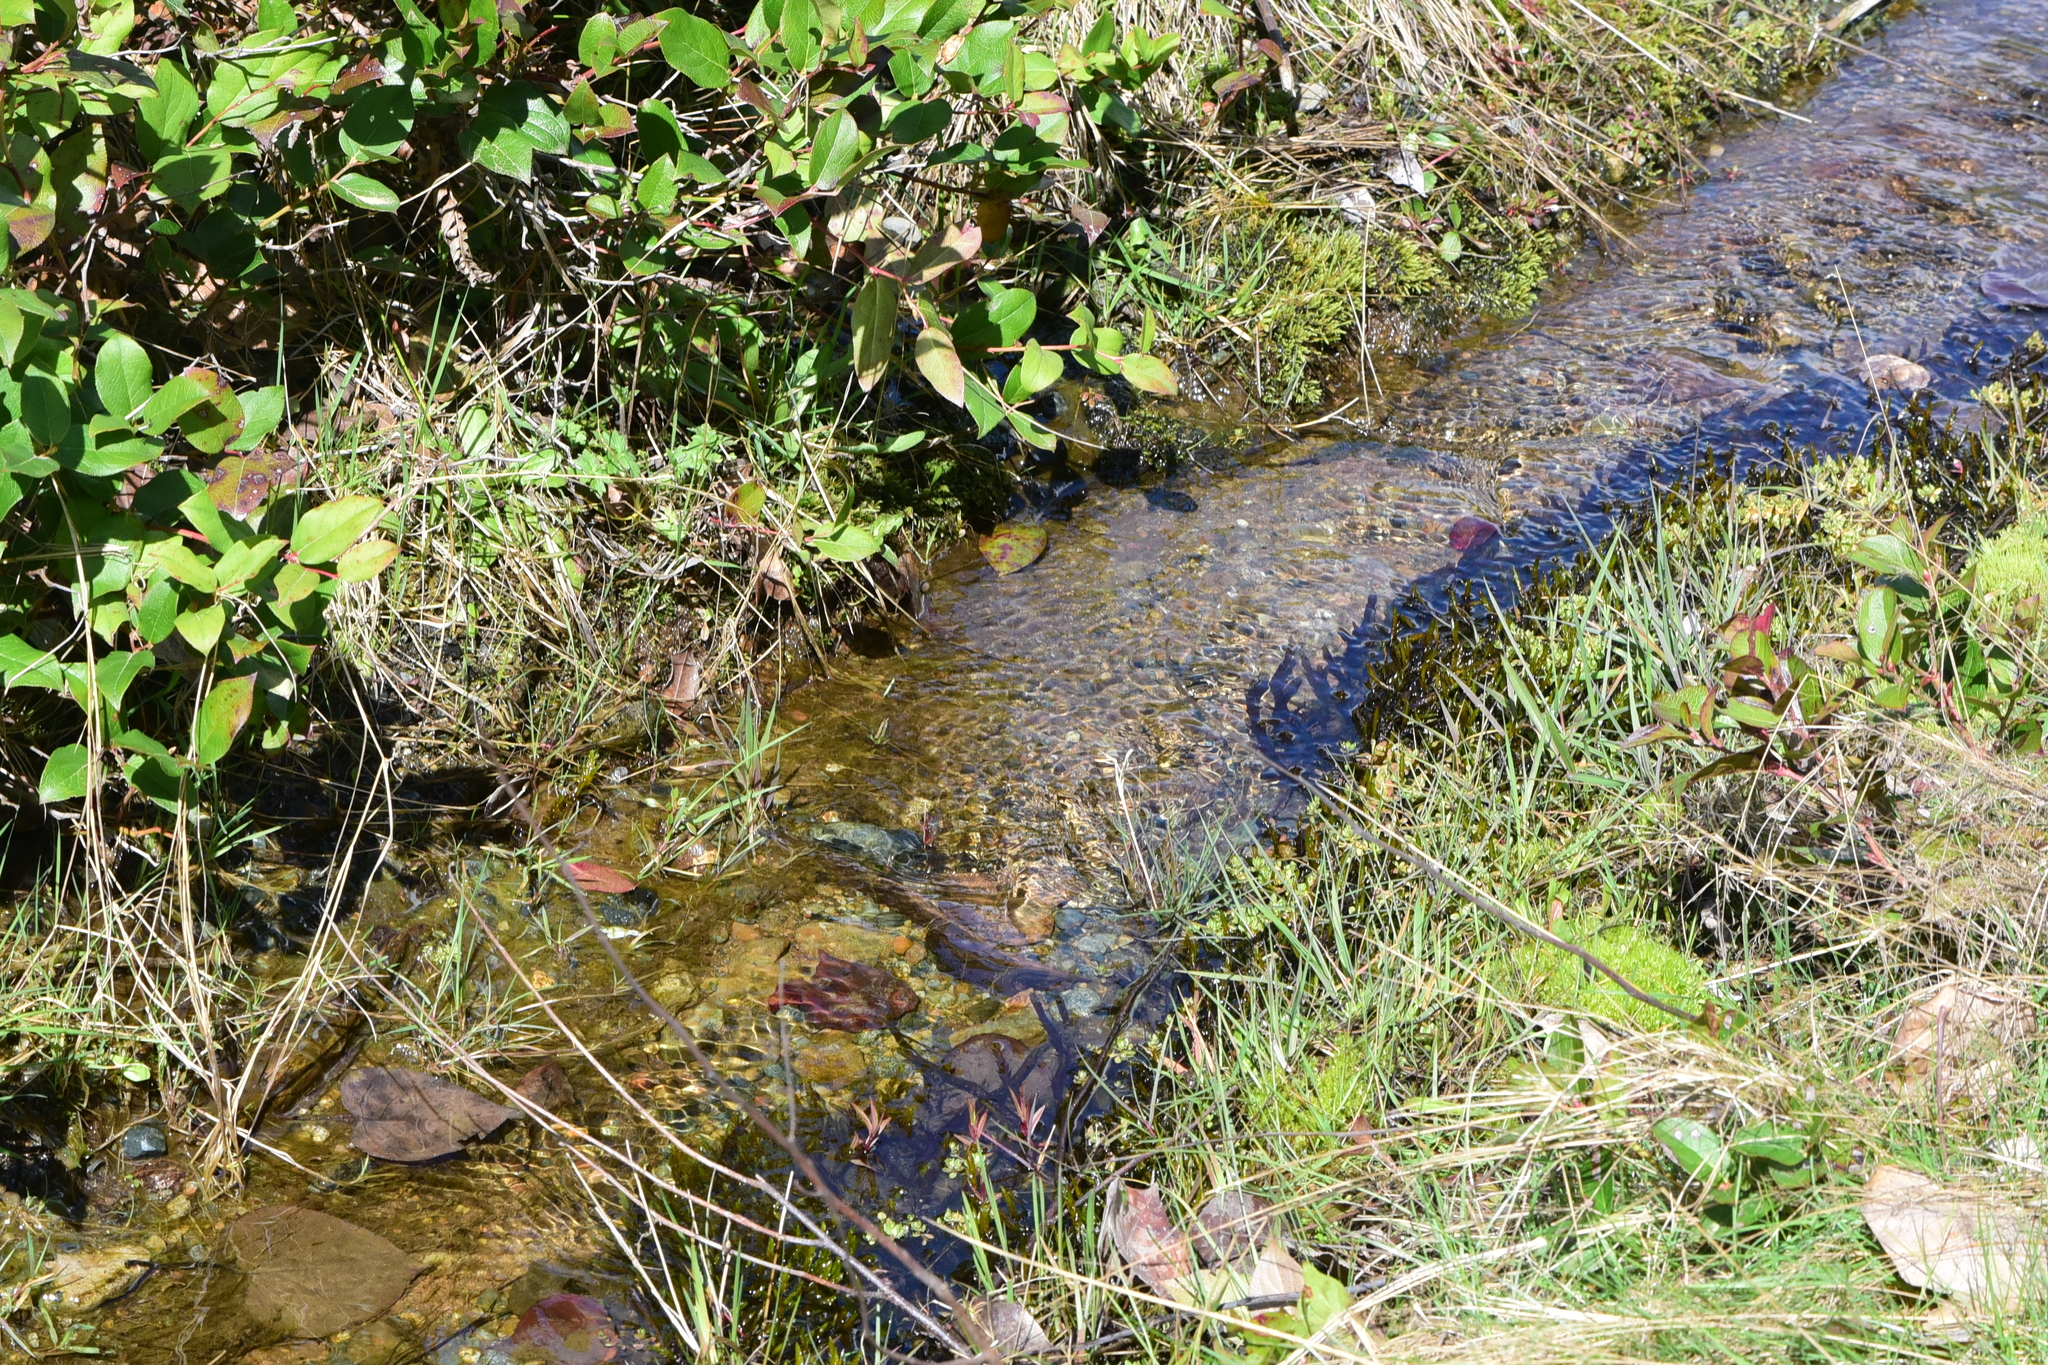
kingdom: Plantae
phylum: Bryophyta
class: Bryopsida
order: Hypnales
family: Fontinalaceae
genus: Fontinalis
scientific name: Fontinalis neomexicana
